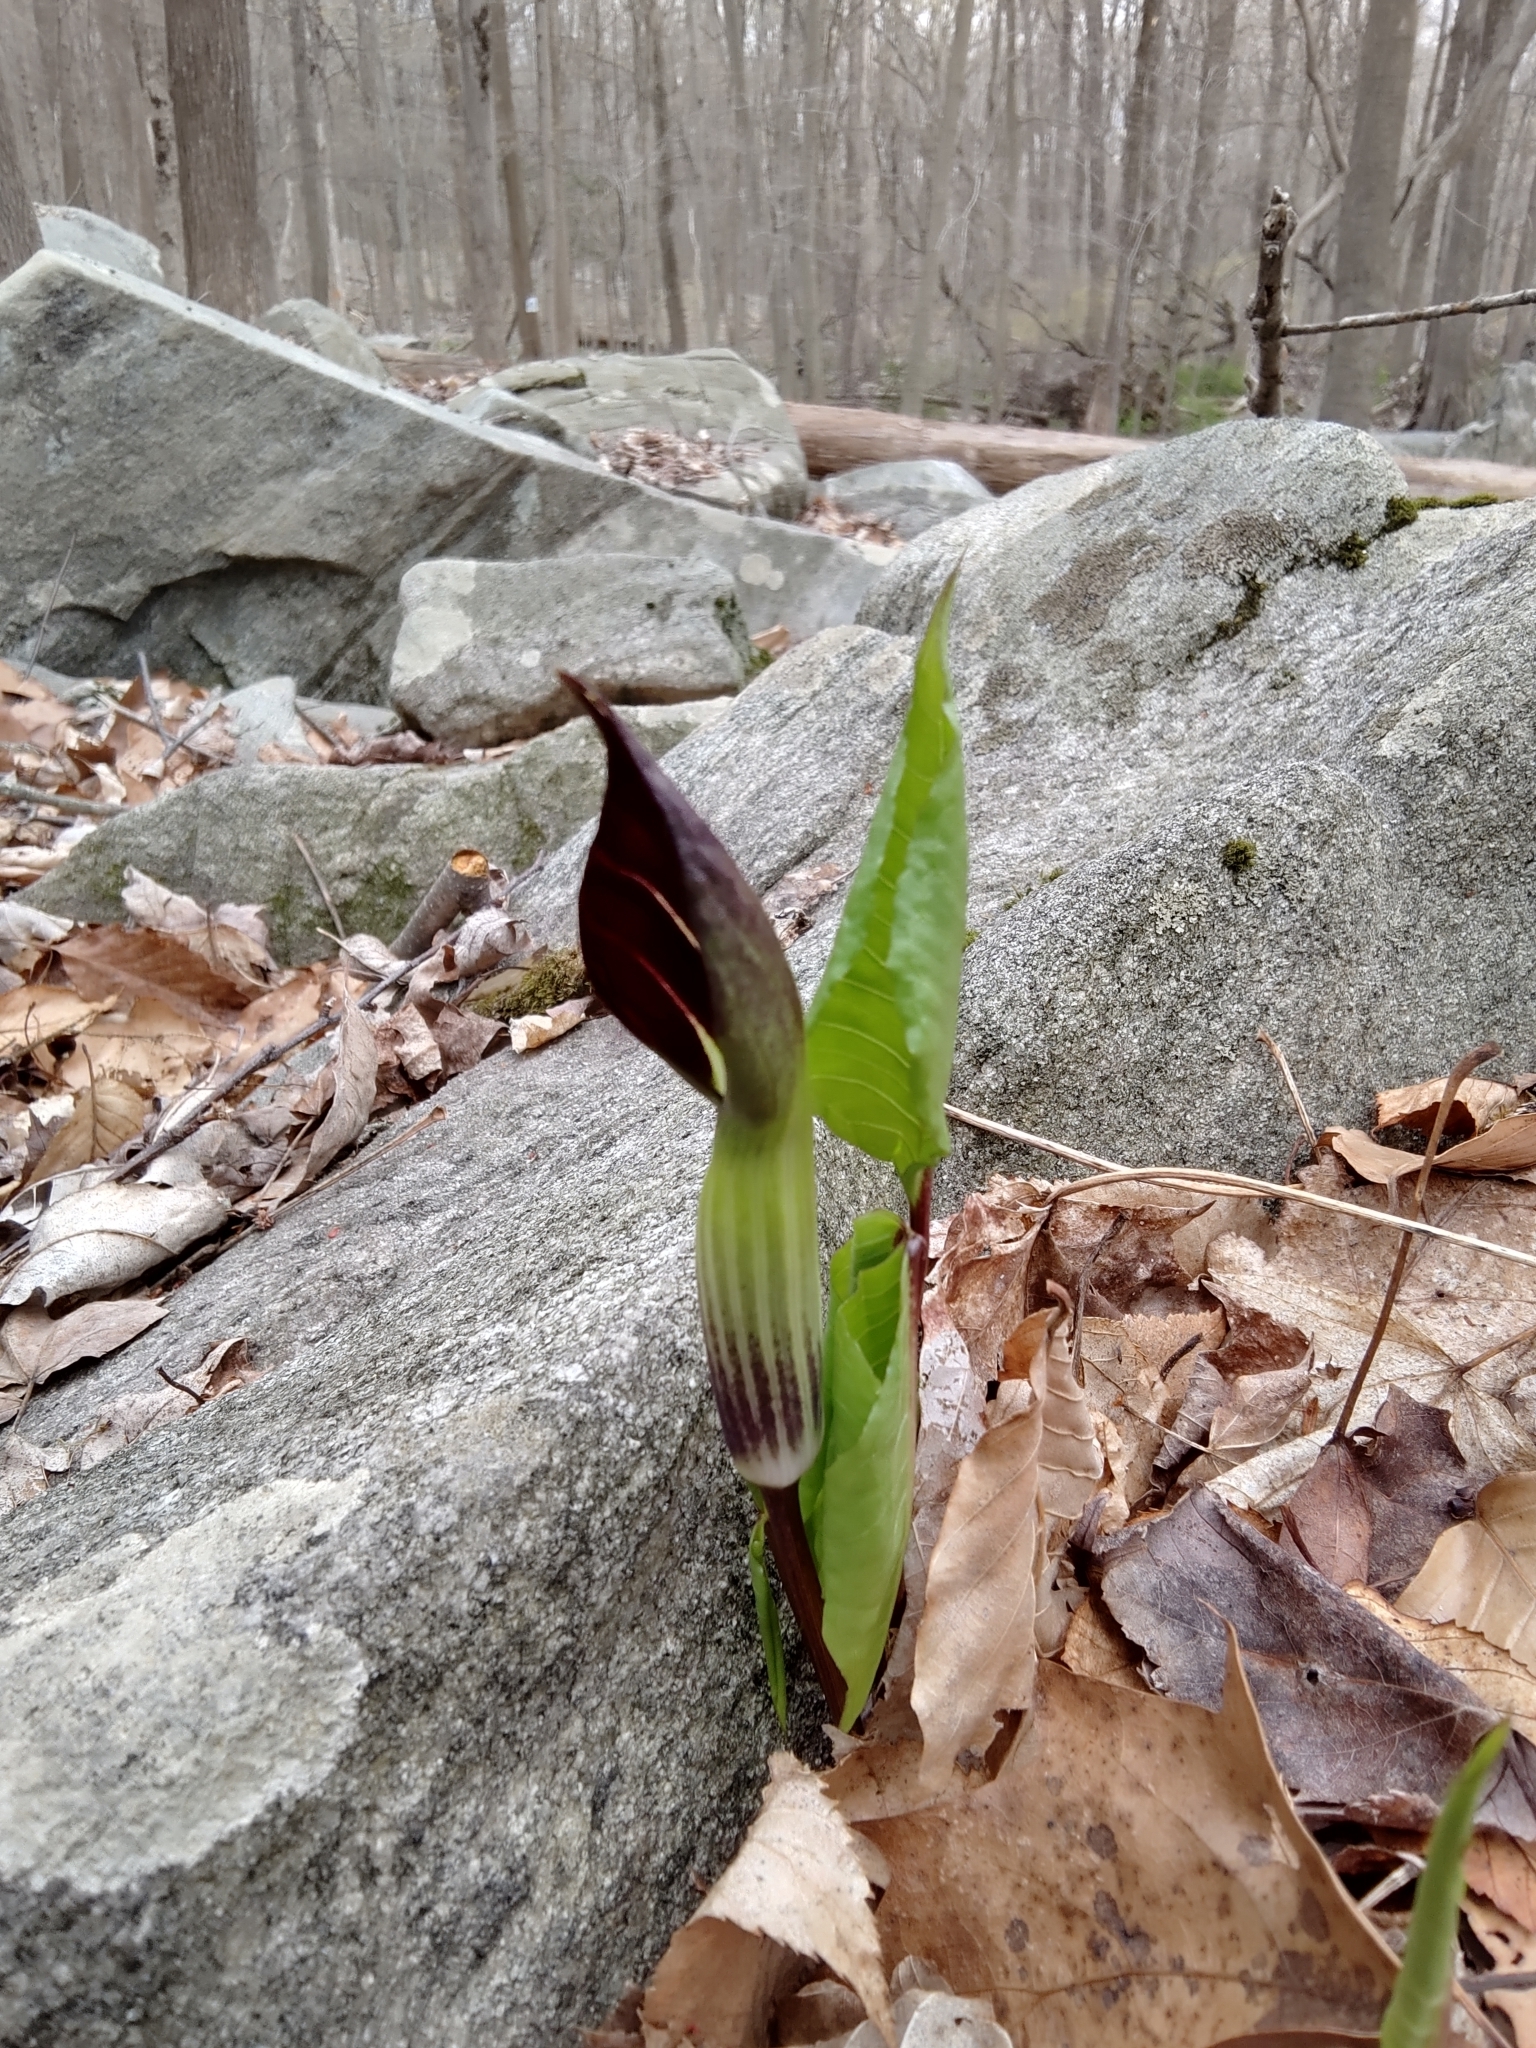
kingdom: Plantae
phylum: Tracheophyta
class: Liliopsida
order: Alismatales
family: Araceae
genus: Arisaema
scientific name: Arisaema triphyllum
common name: Jack-in-the-pulpit
